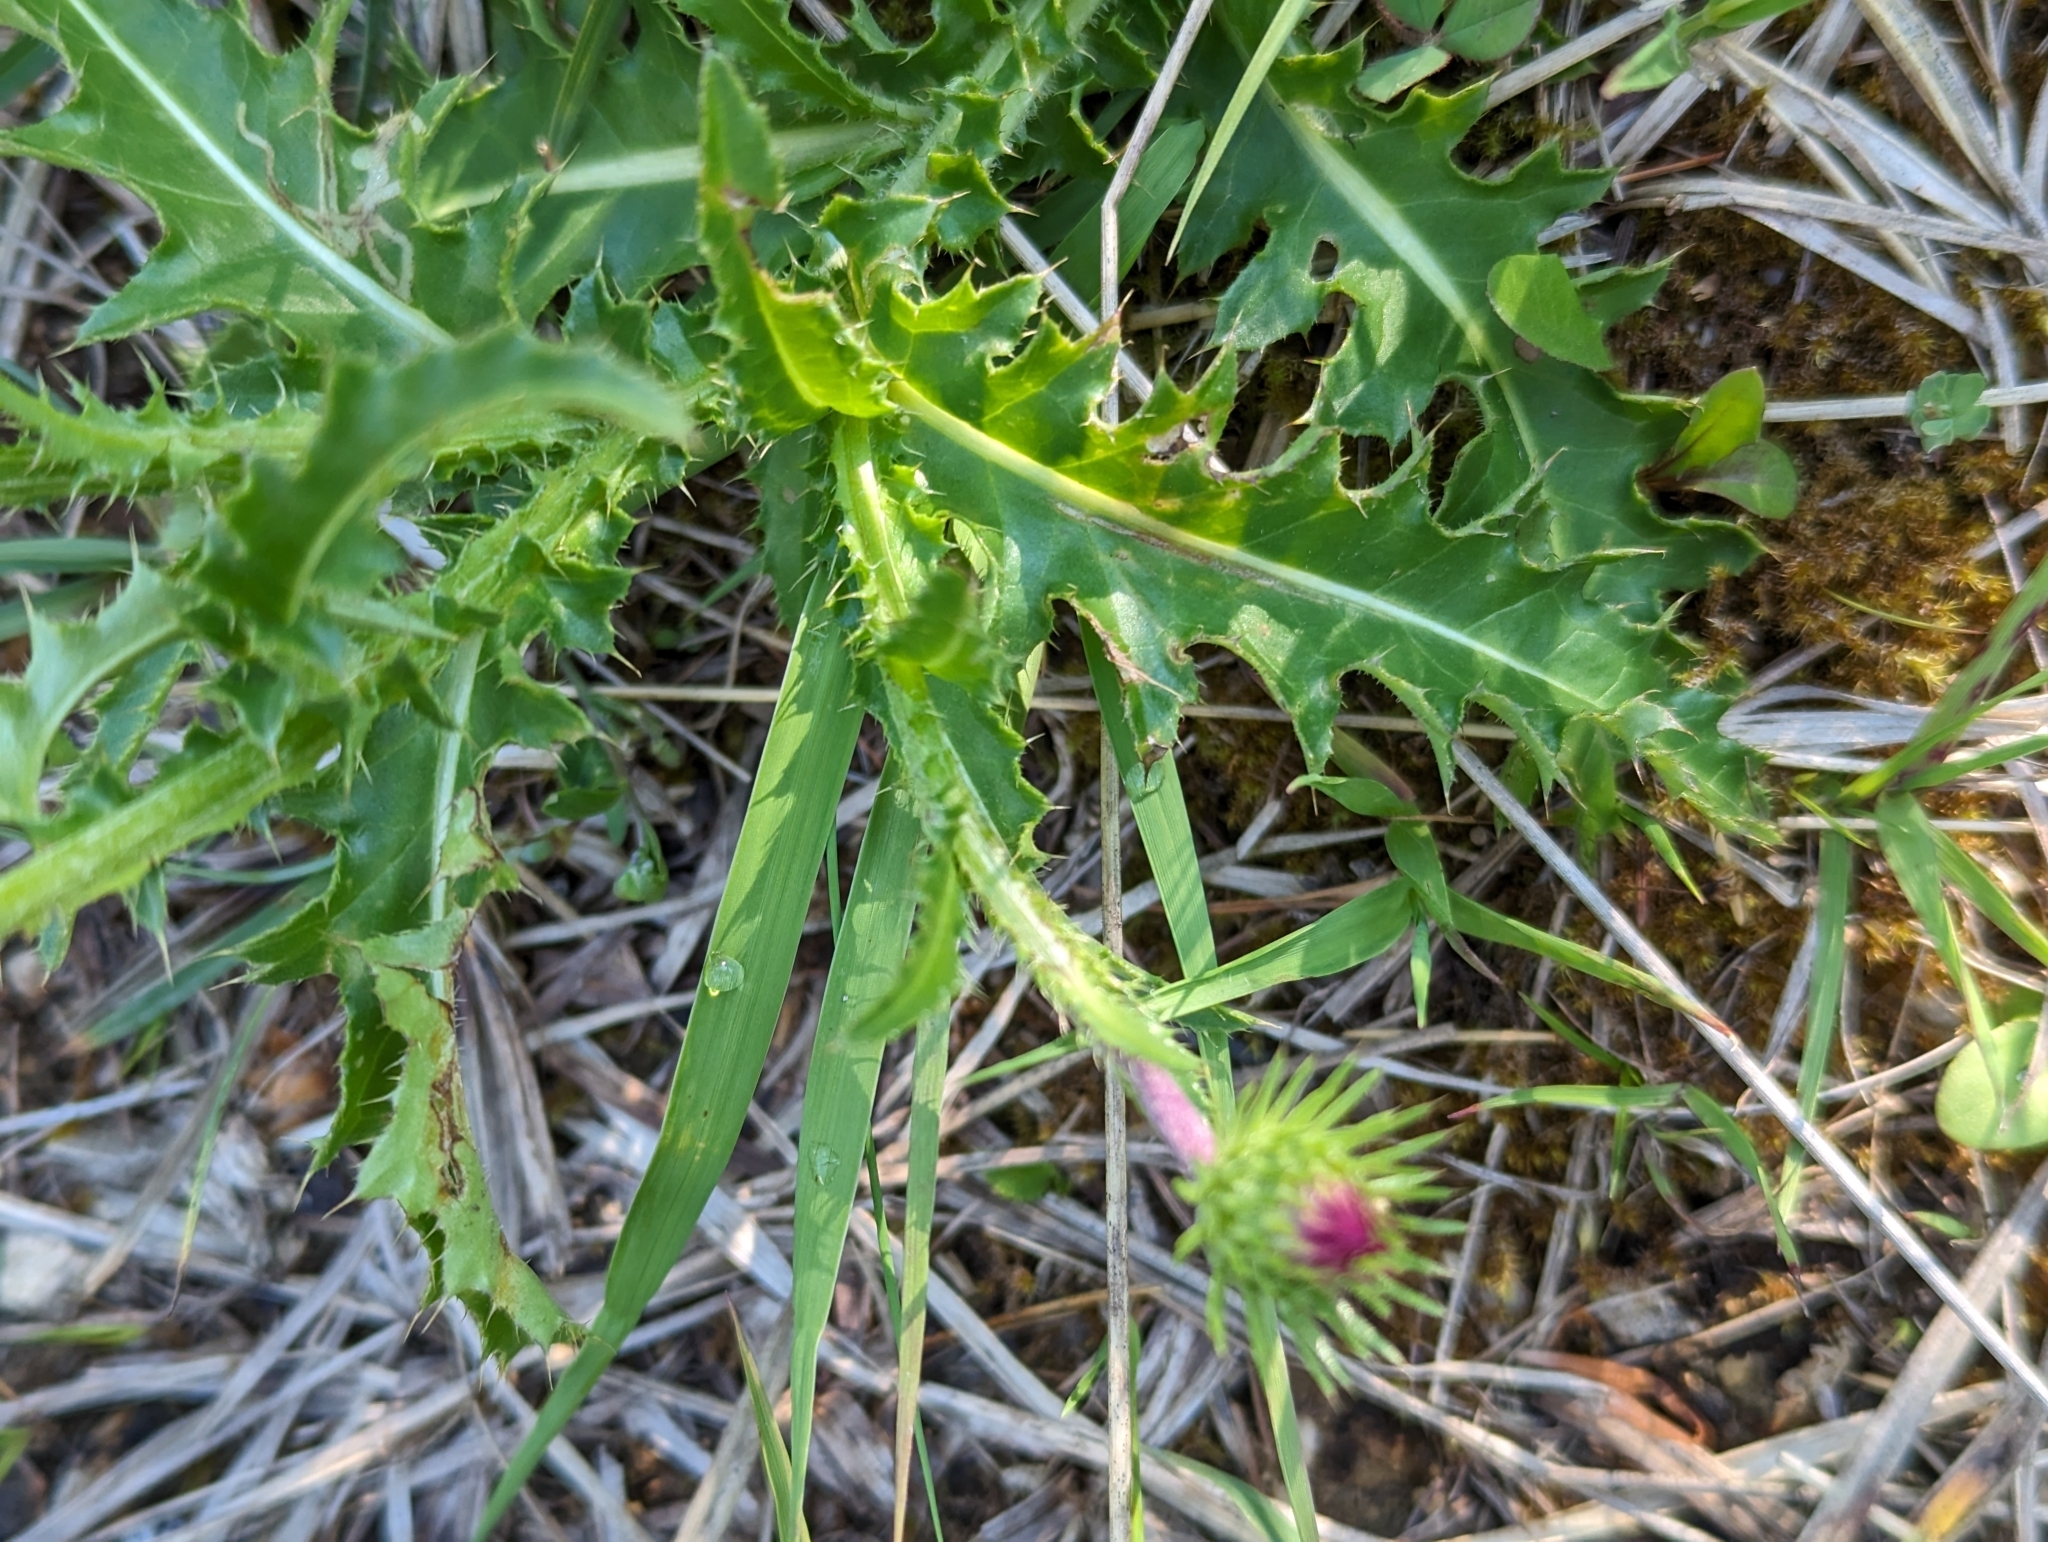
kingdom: Plantae
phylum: Tracheophyta
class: Magnoliopsida
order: Asterales
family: Asteraceae
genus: Carduus
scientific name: Carduus defloratus
